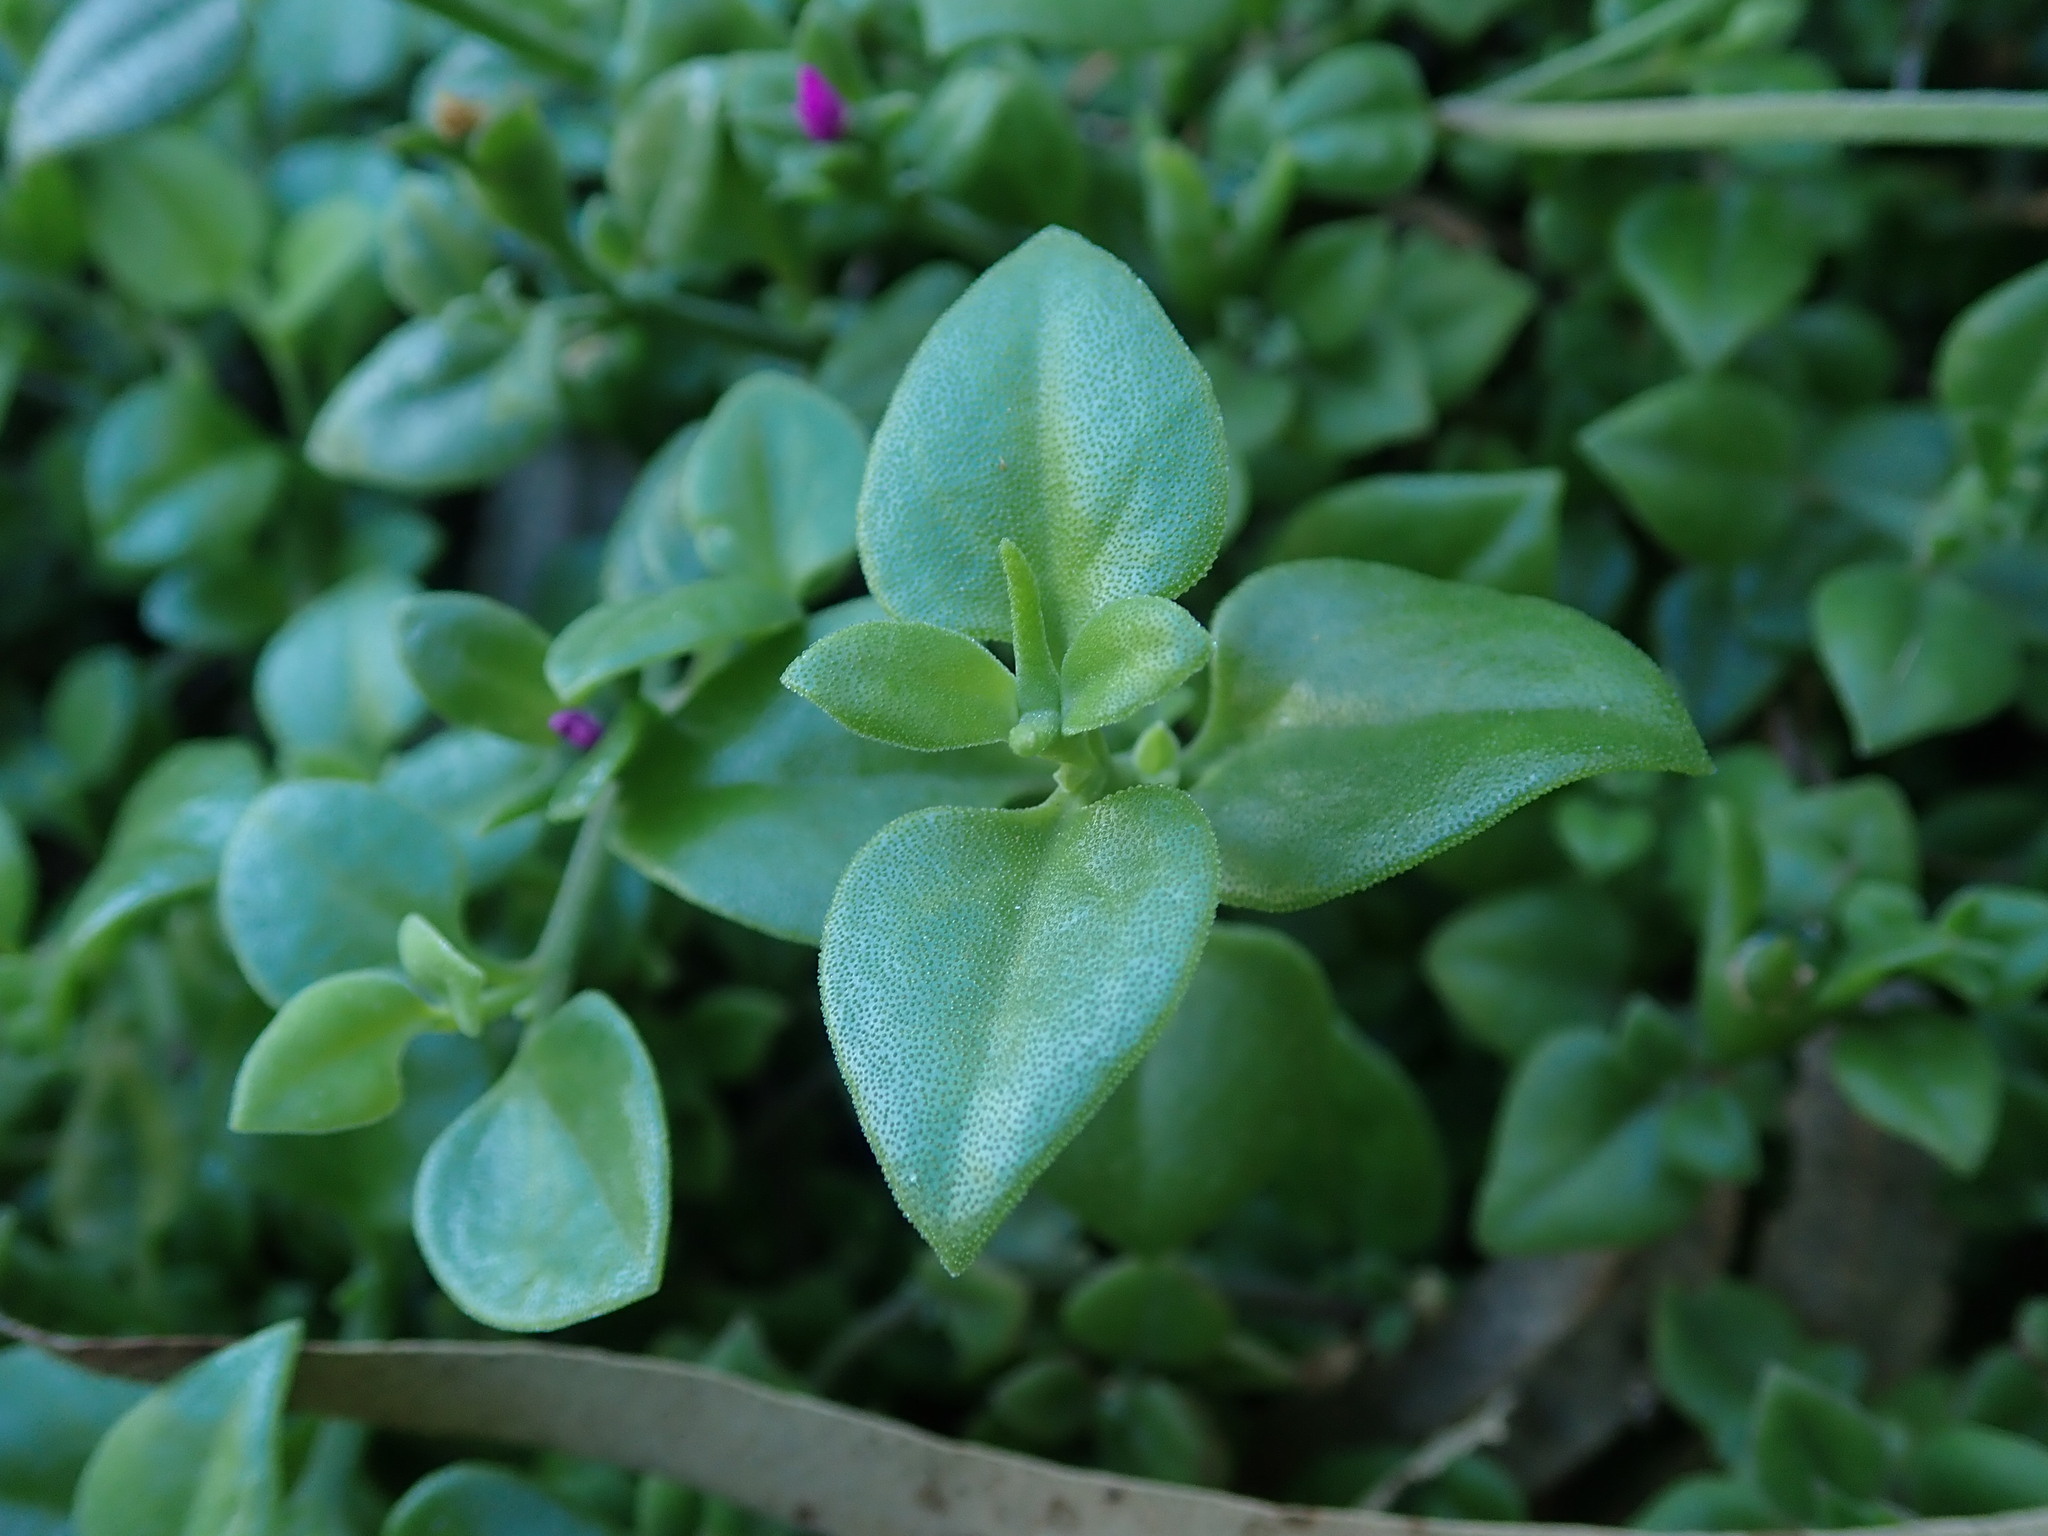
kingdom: Plantae
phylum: Tracheophyta
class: Magnoliopsida
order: Caryophyllales
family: Aizoaceae
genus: Mesembryanthemum
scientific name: Mesembryanthemum cordifolium
